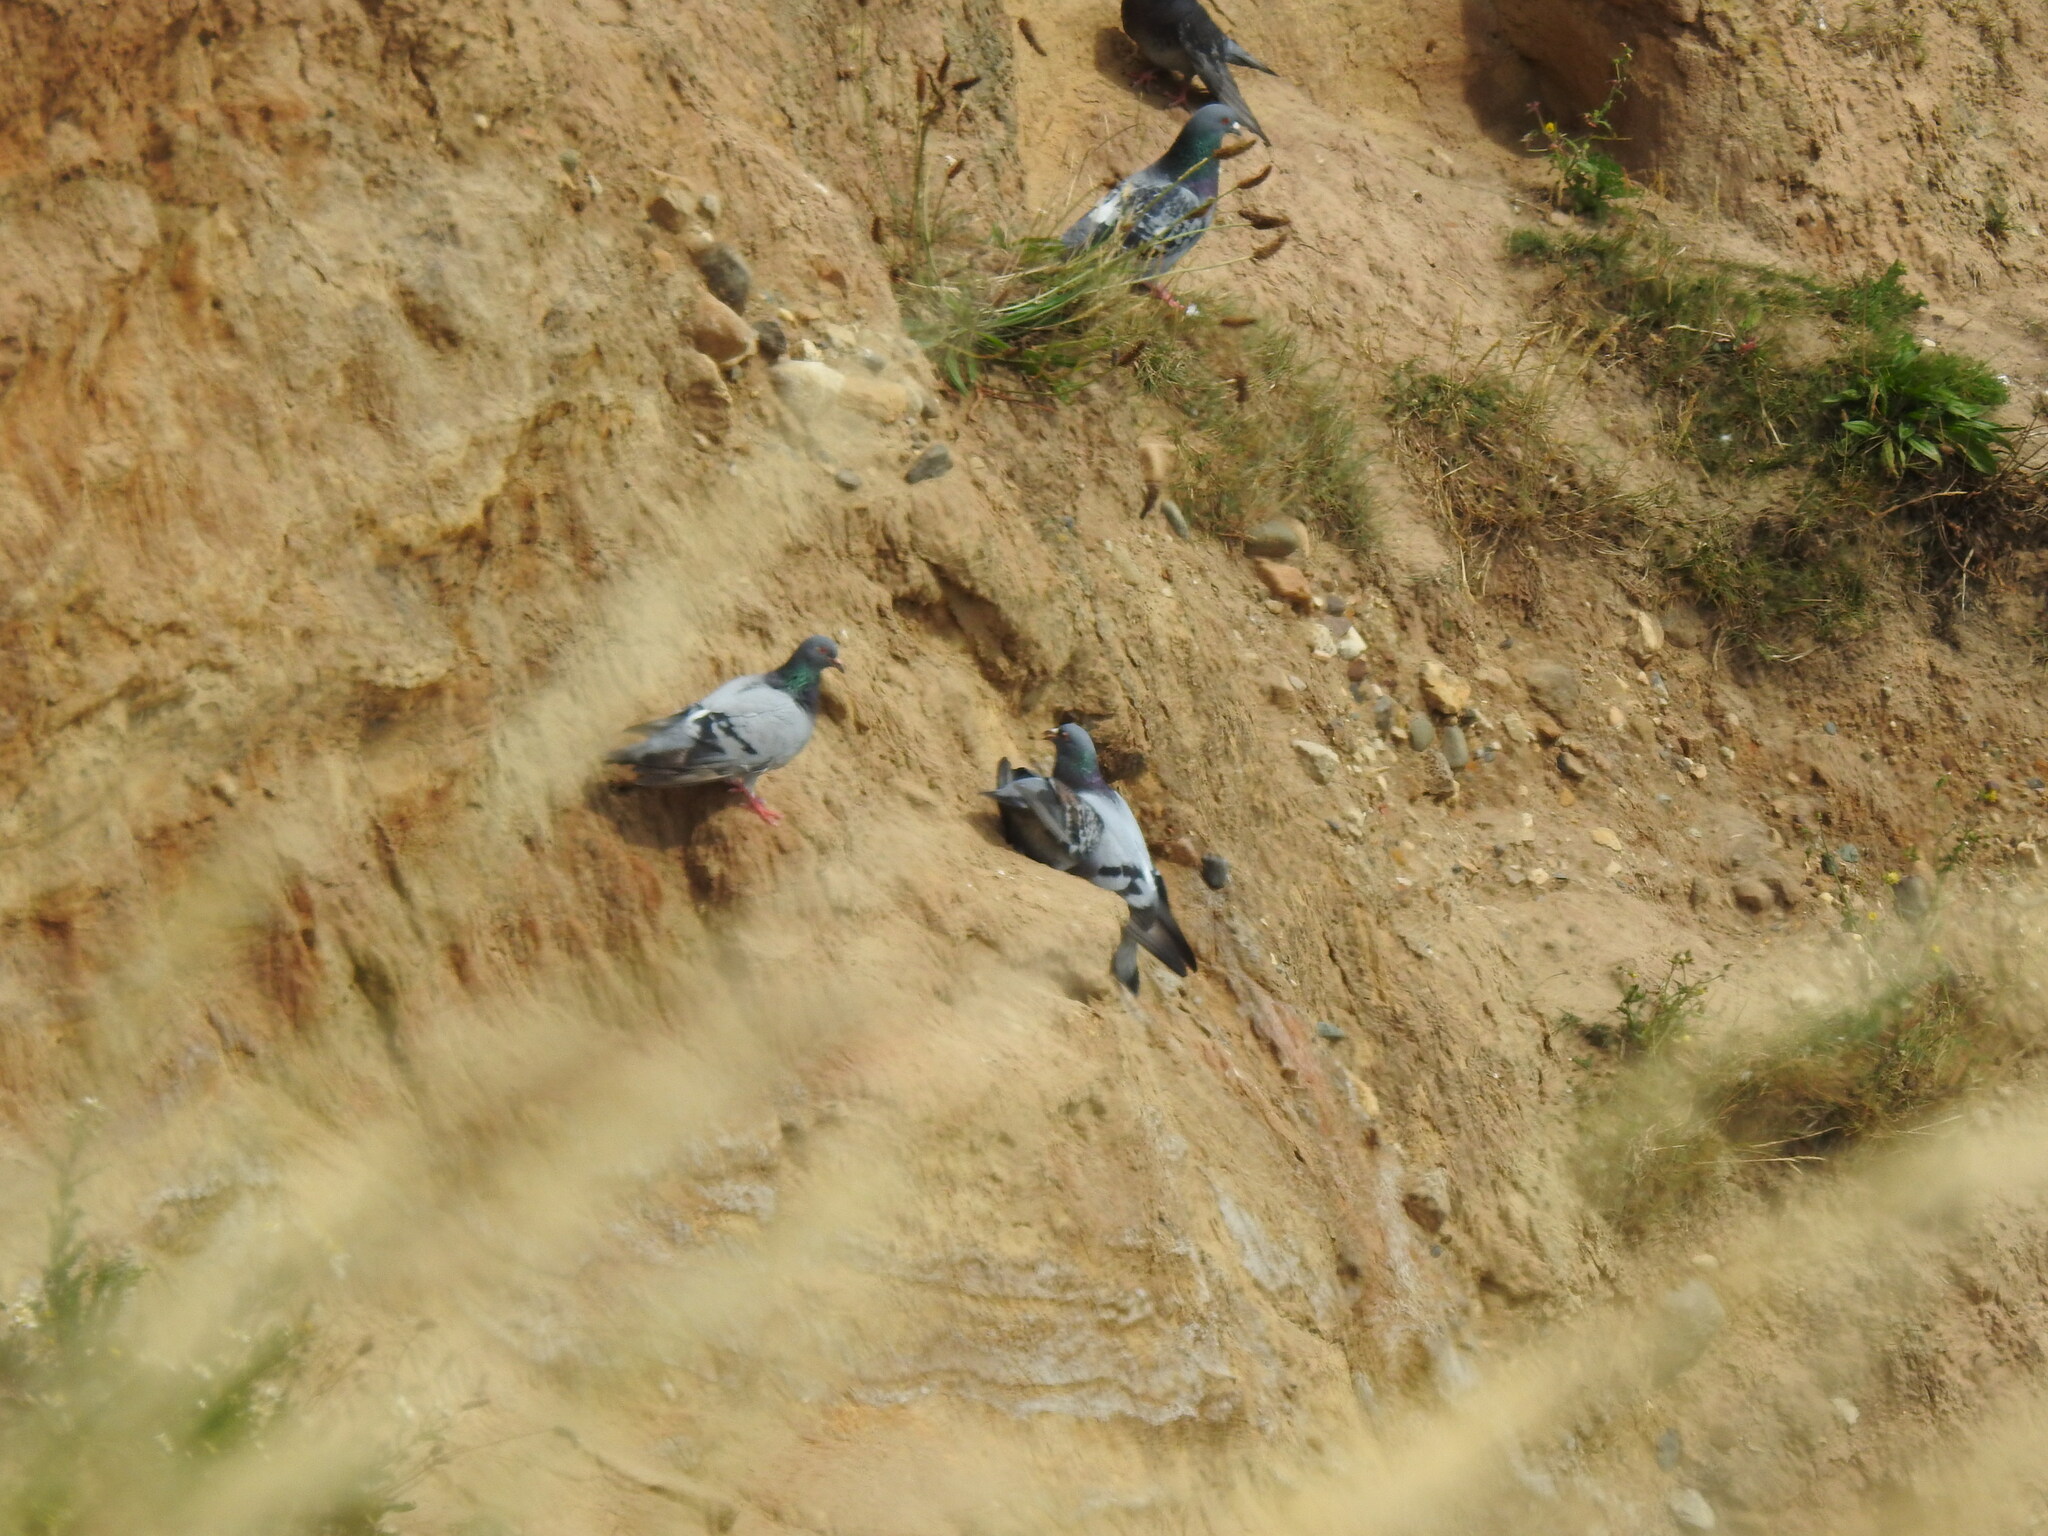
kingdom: Animalia
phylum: Chordata
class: Aves
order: Columbiformes
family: Columbidae
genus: Columba
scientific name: Columba livia
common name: Rock pigeon
